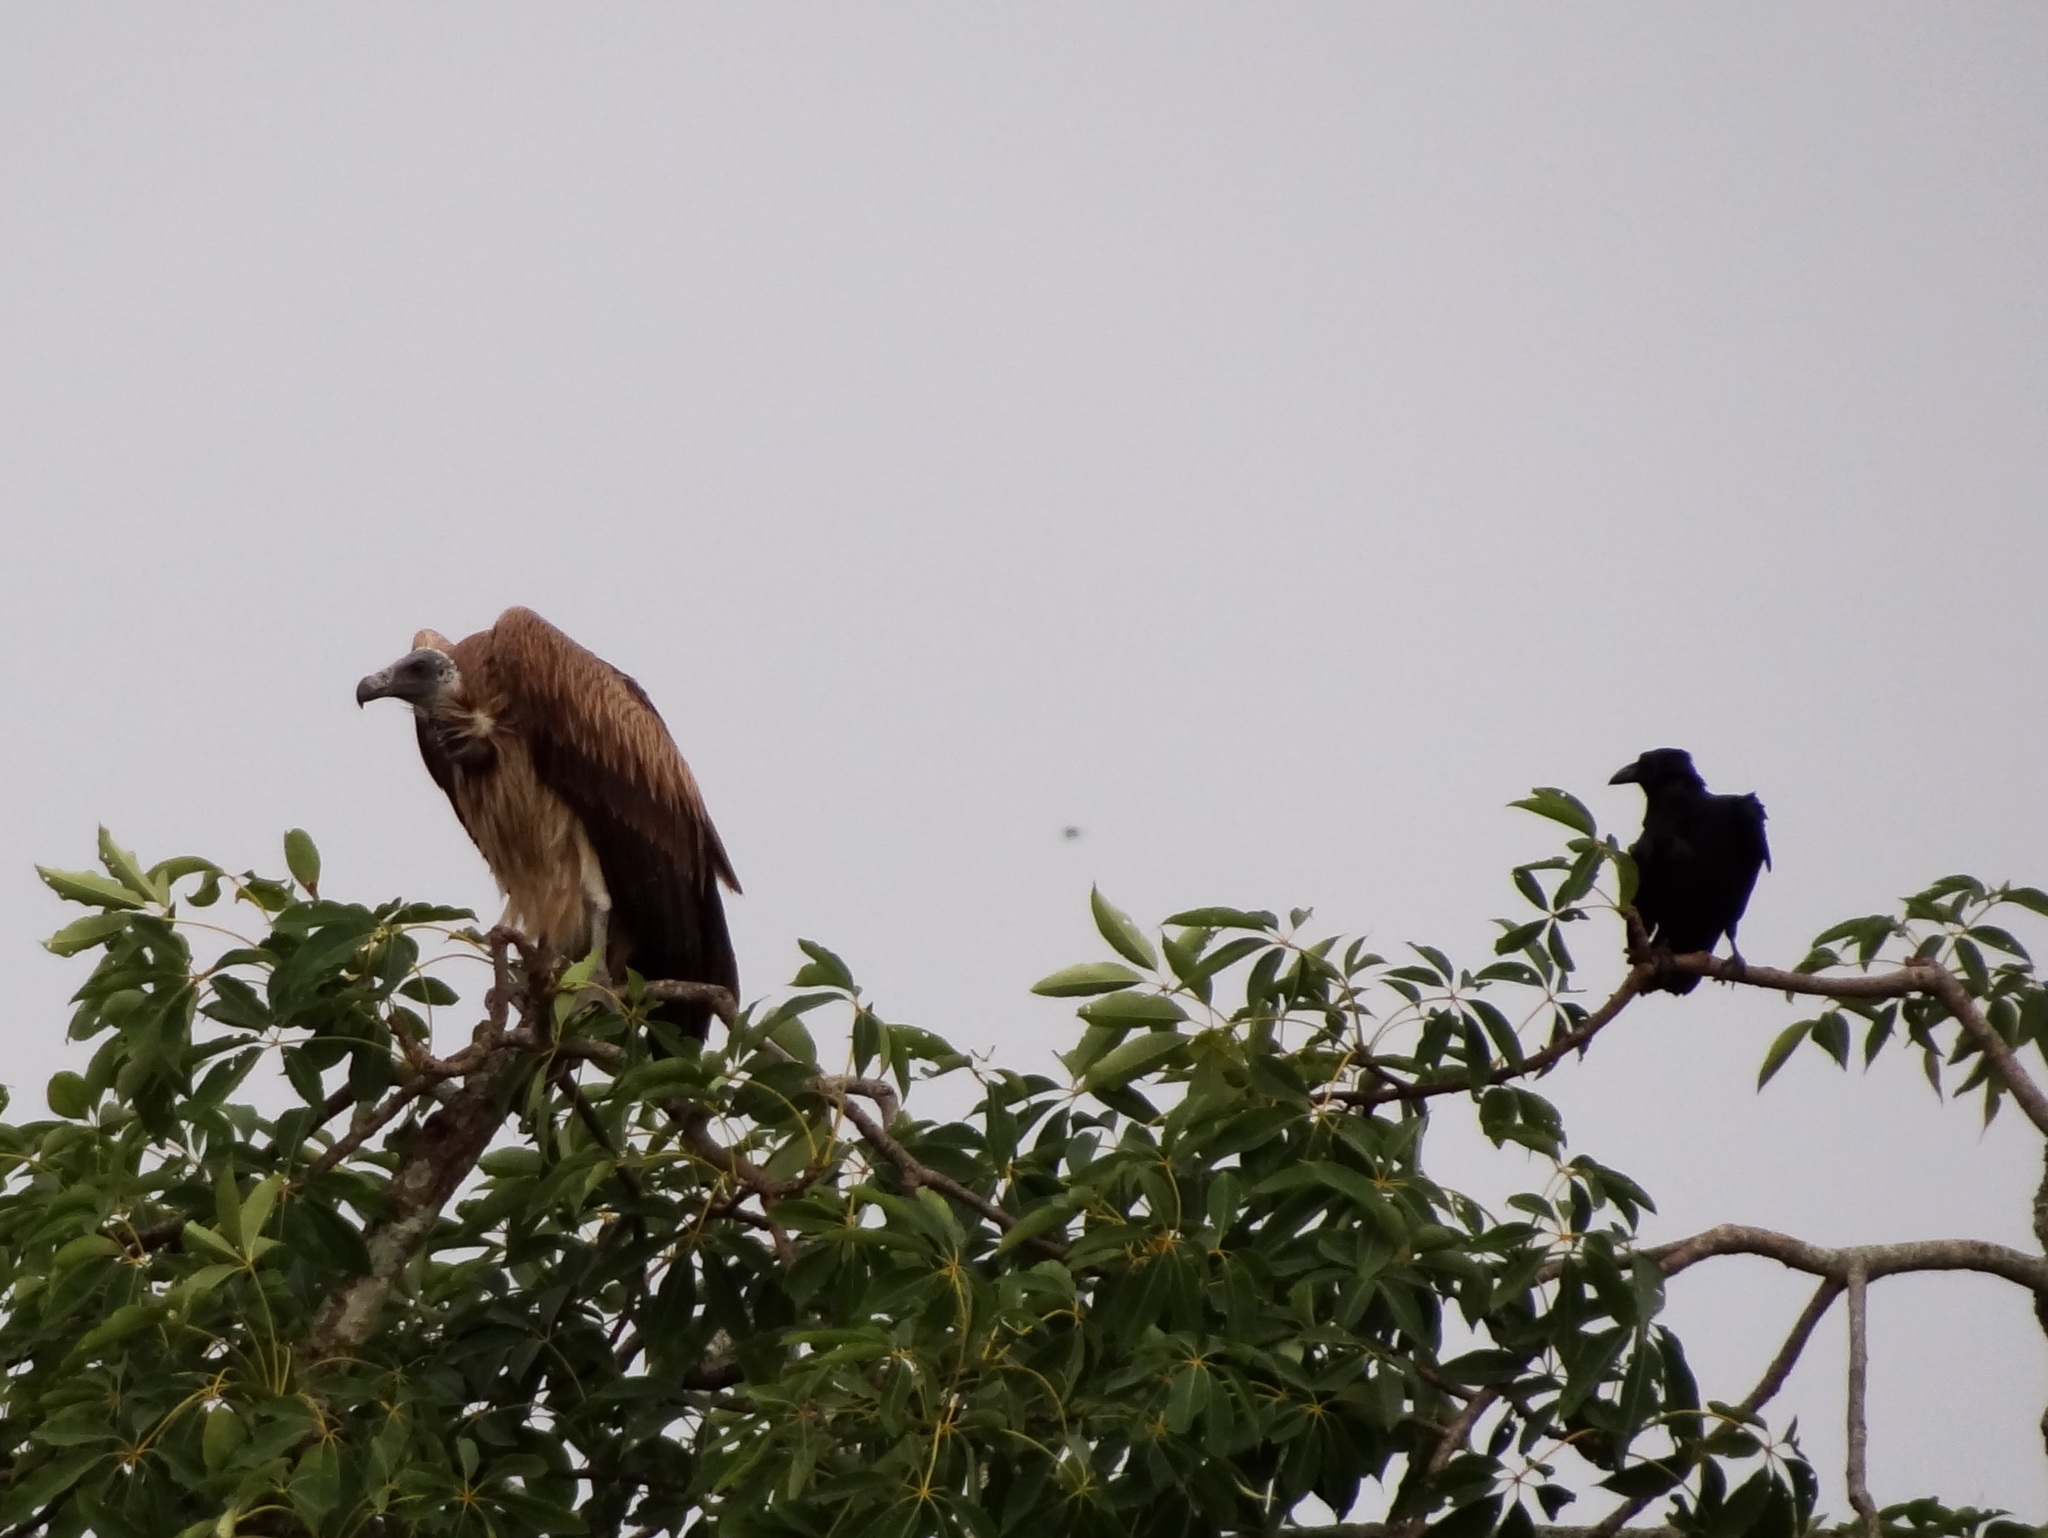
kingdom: Animalia
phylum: Chordata
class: Aves
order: Accipitriformes
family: Accipitridae
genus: Gyps
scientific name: Gyps tenuirostris
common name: Slender-billed vulture
